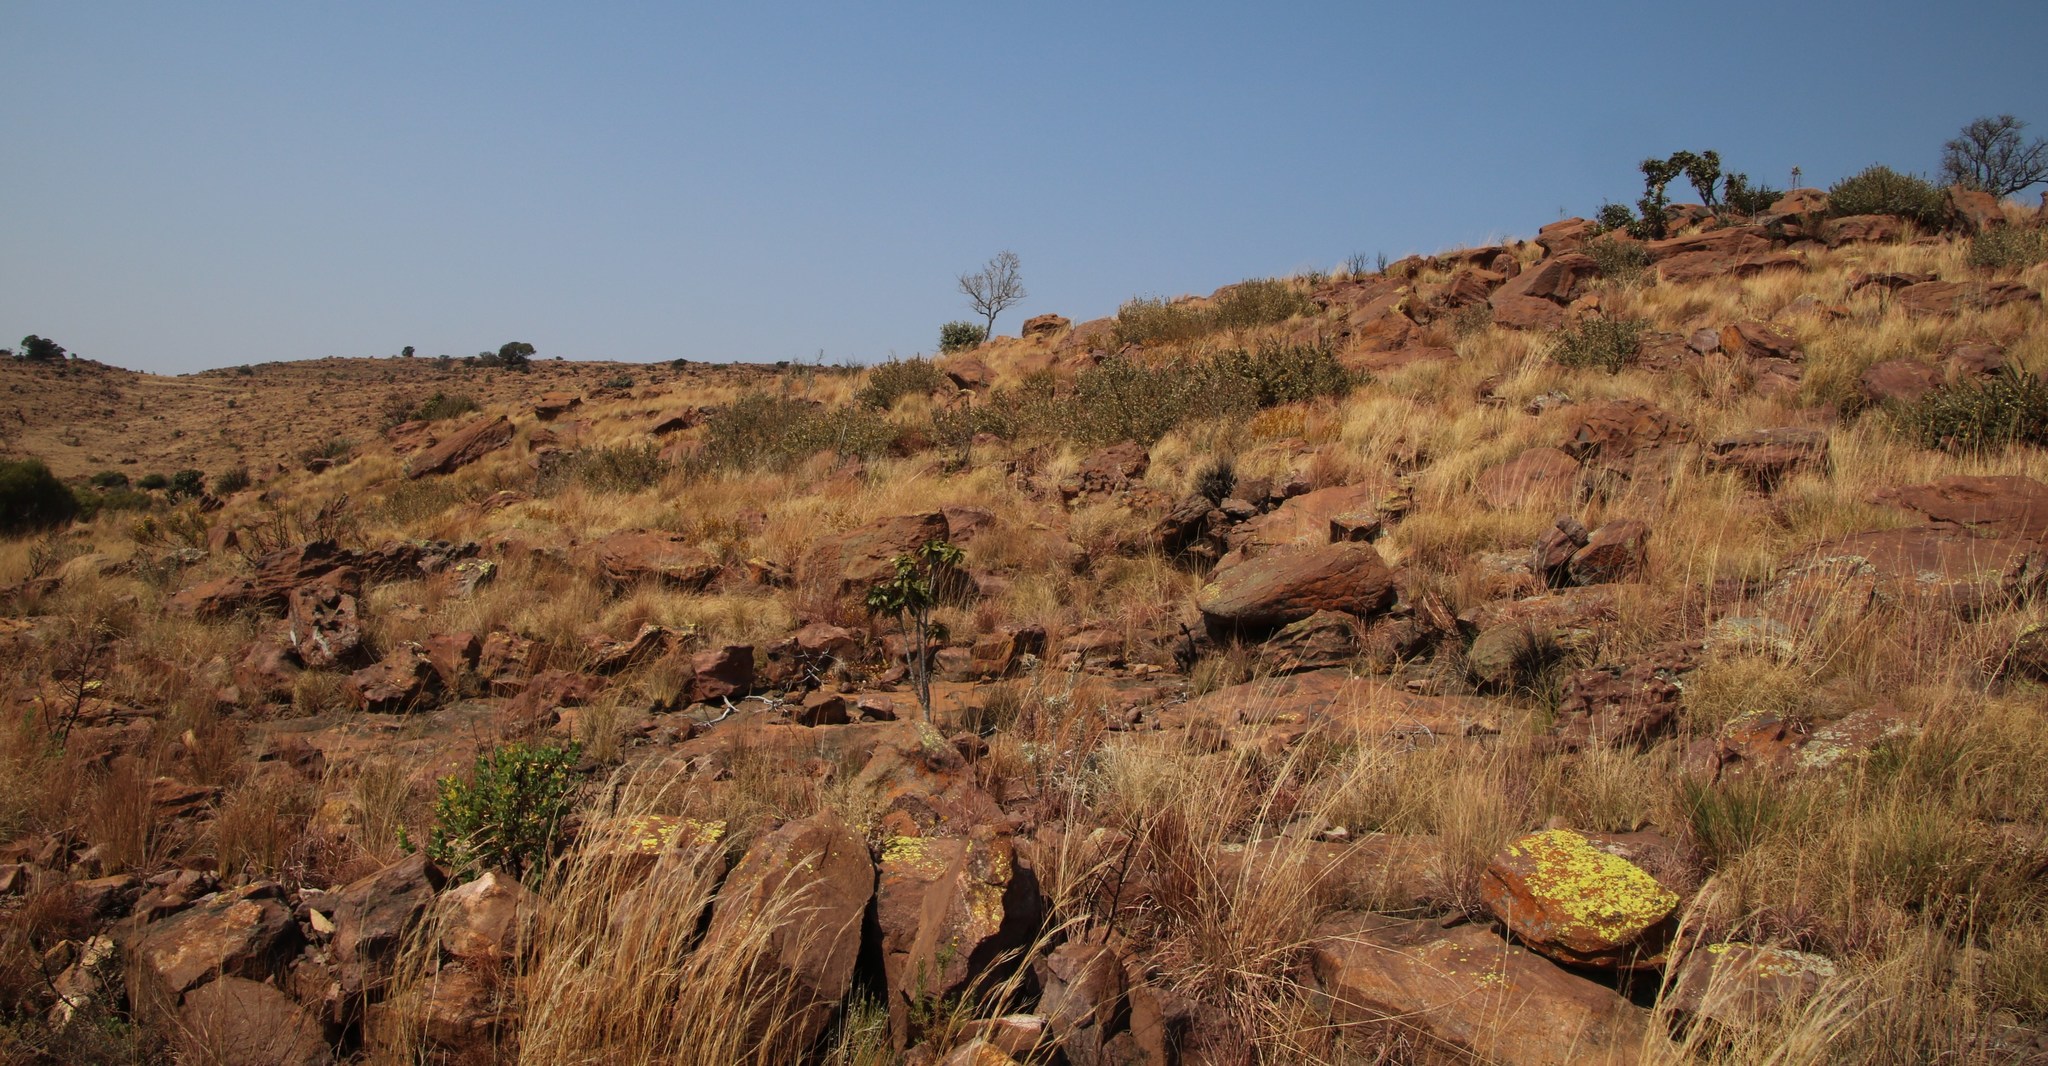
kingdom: Plantae
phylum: Tracheophyta
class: Magnoliopsida
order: Fabales
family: Fabaceae
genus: Rhynchosia
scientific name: Rhynchosia nitens
